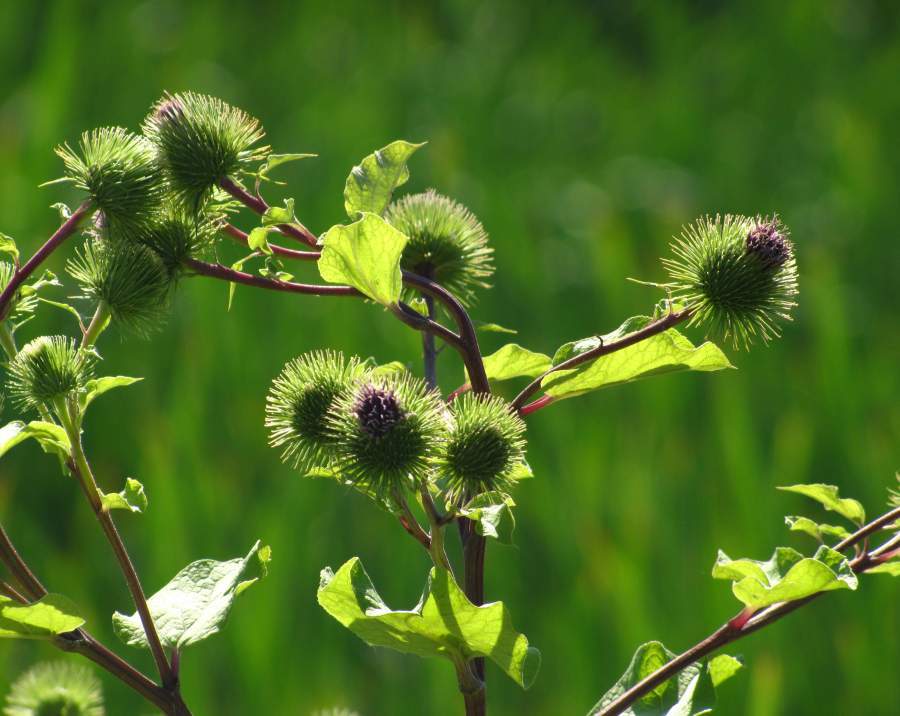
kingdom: Plantae
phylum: Tracheophyta
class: Magnoliopsida
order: Asterales
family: Asteraceae
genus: Arctium
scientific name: Arctium minus
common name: Lesser burdock
